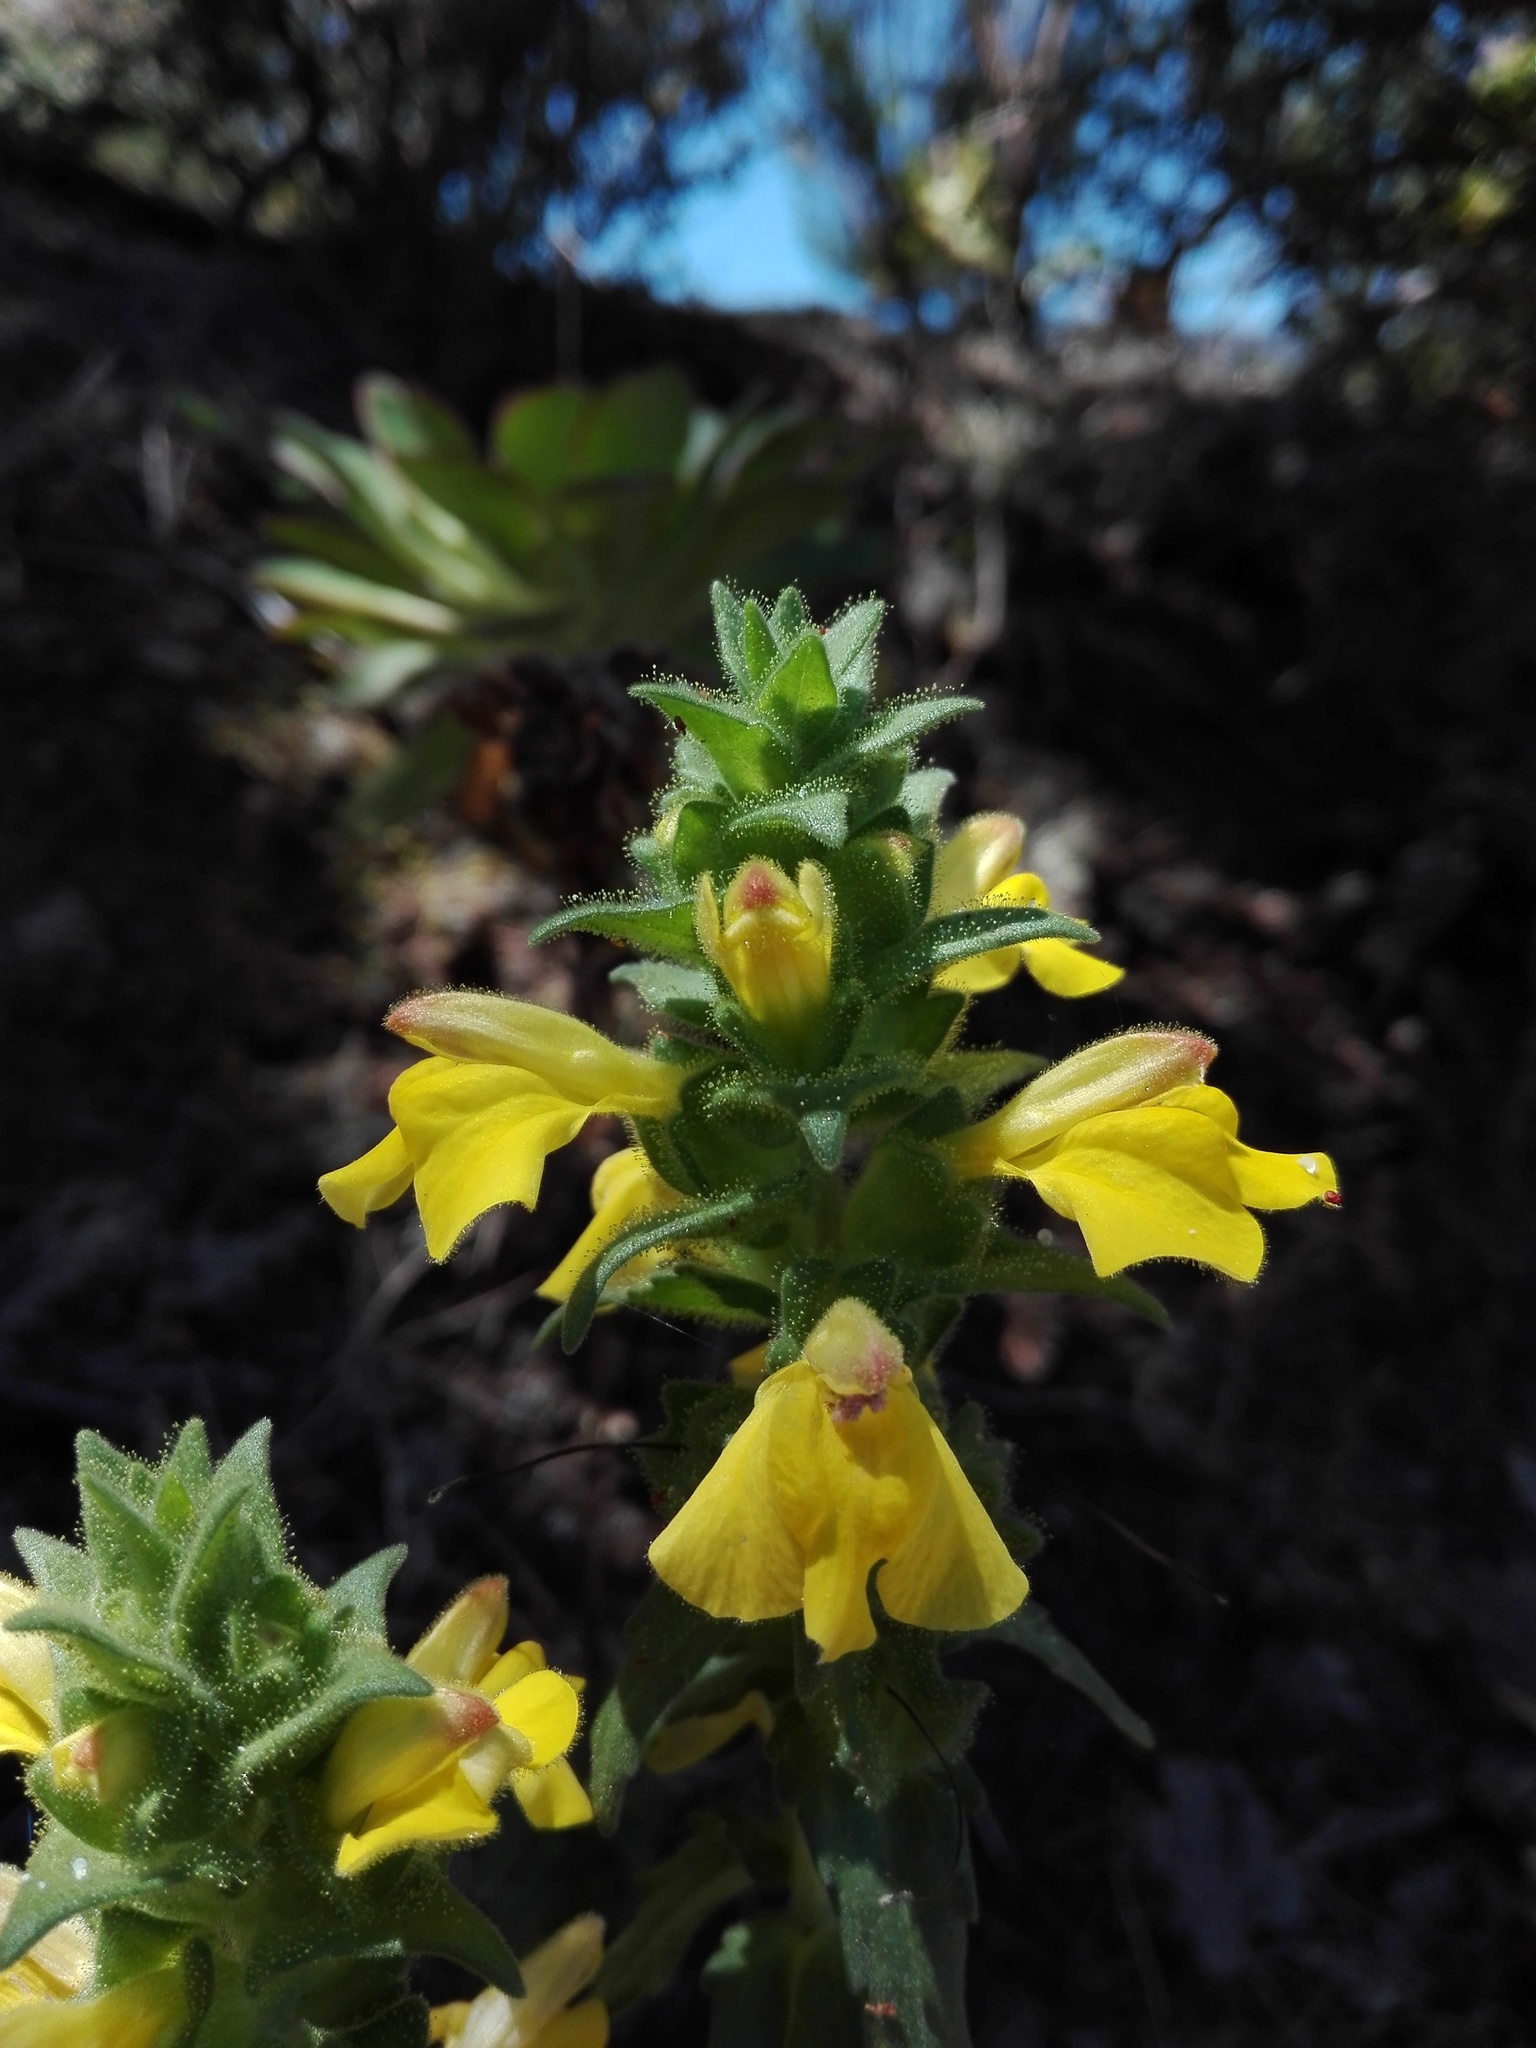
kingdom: Plantae
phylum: Tracheophyta
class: Magnoliopsida
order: Lamiales
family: Orobanchaceae
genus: Bellardia
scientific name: Bellardia trixago
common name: Mediterranean lineseed
